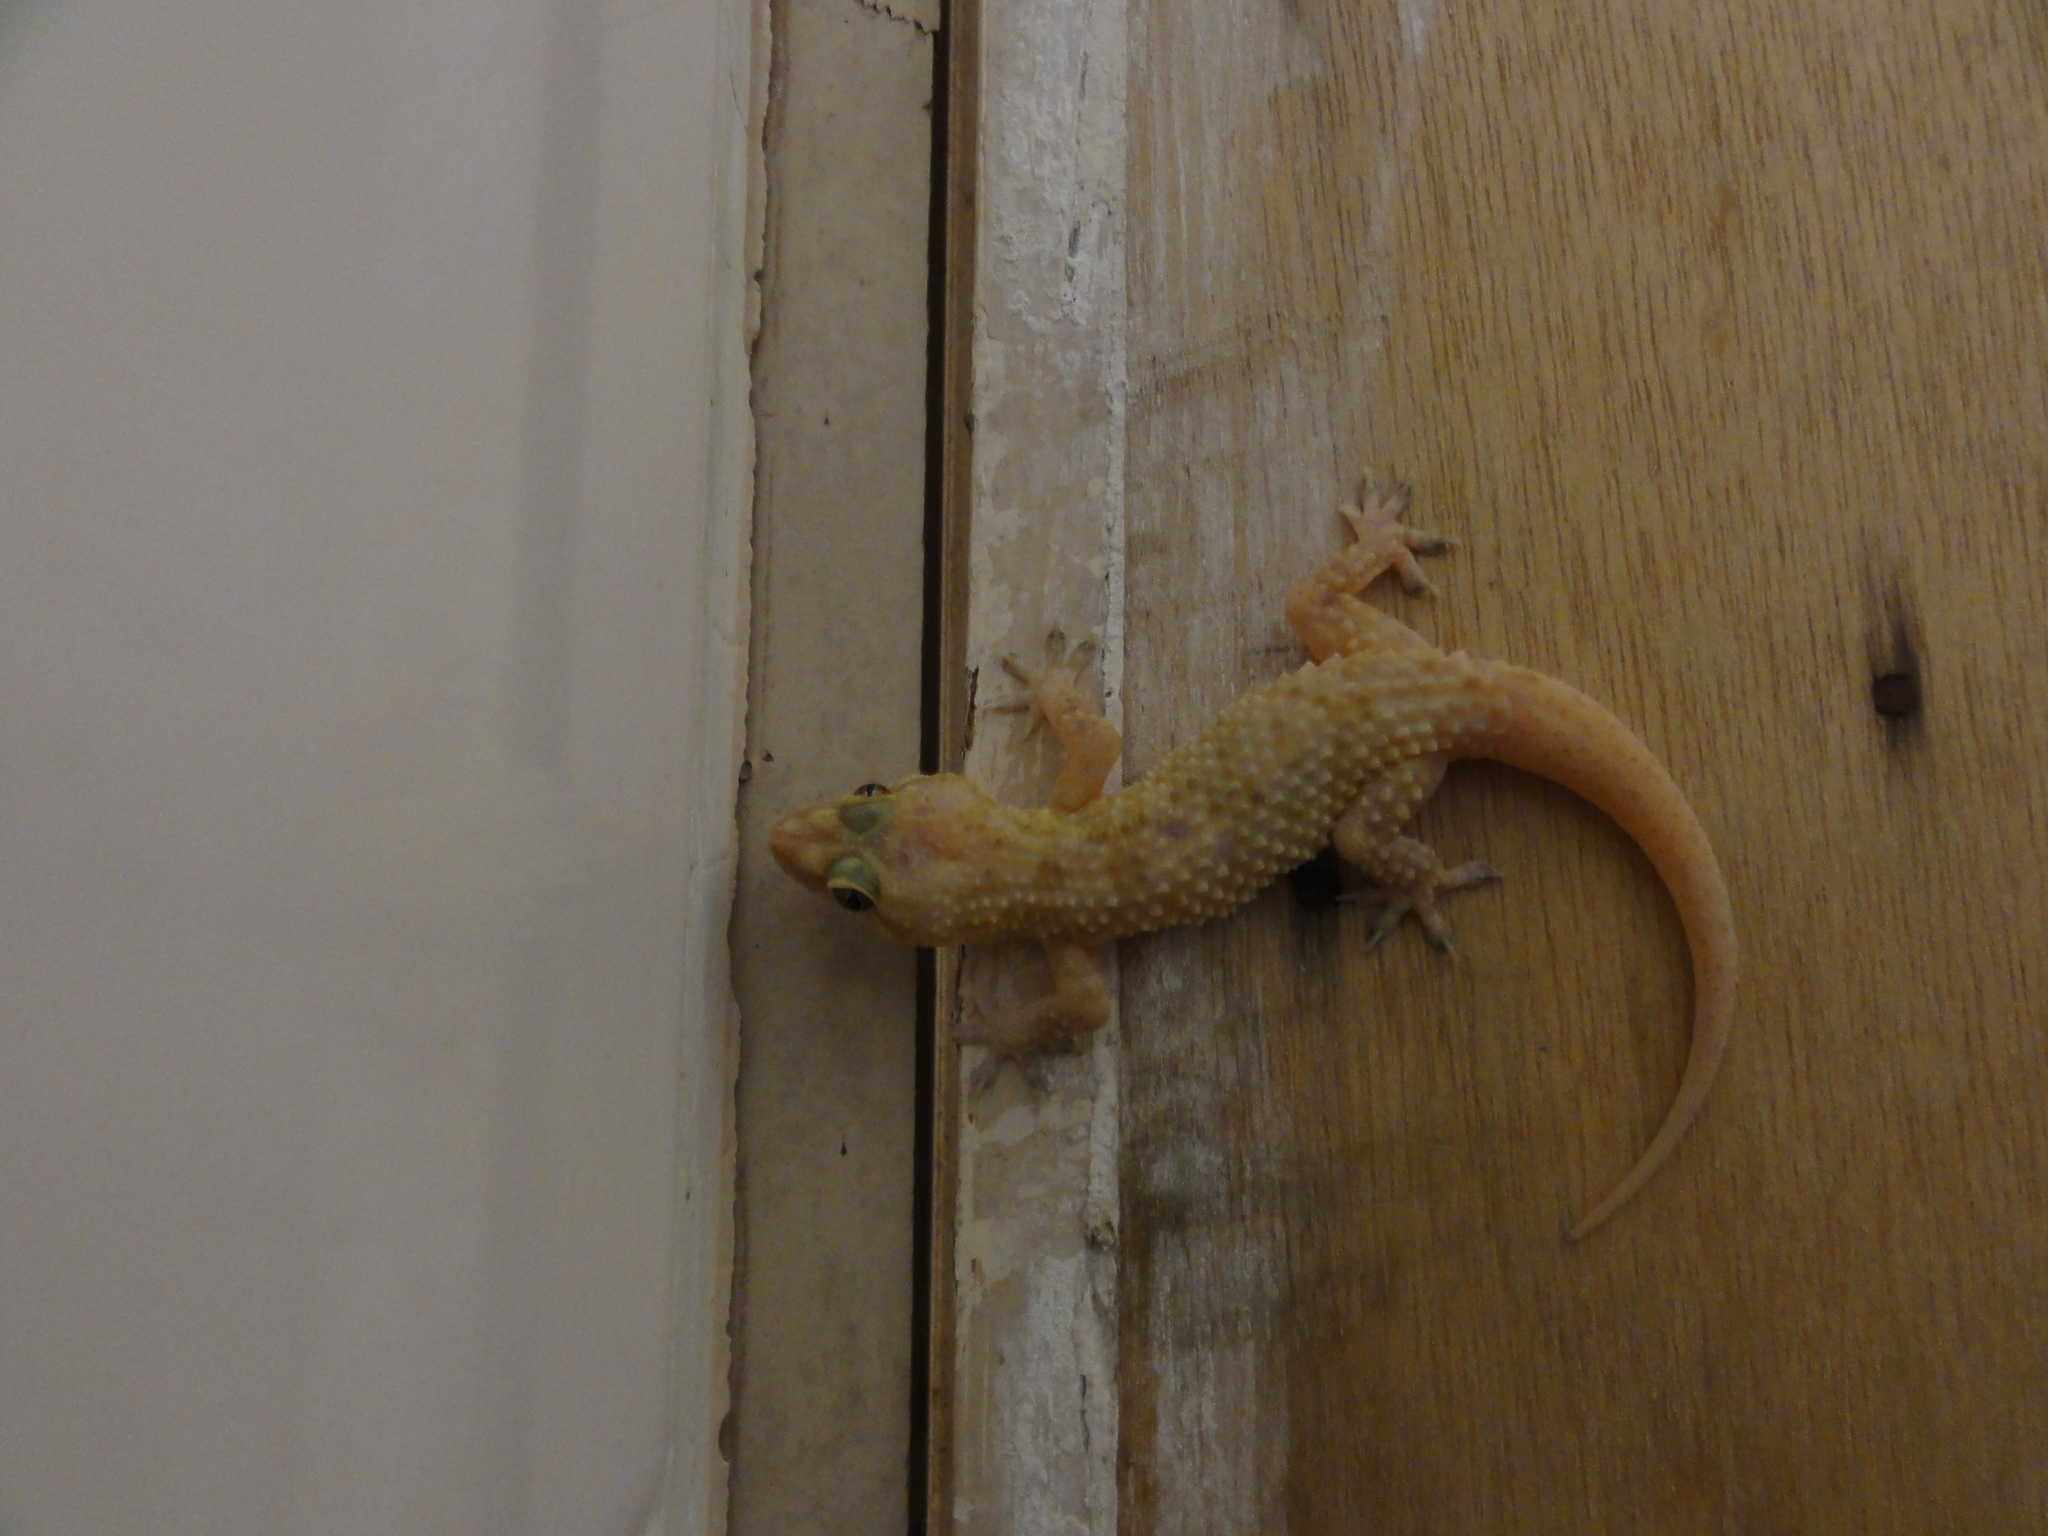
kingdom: Animalia
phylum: Chordata
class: Squamata
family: Gekkonidae
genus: Hemidactylus
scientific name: Hemidactylus alkiyumii
